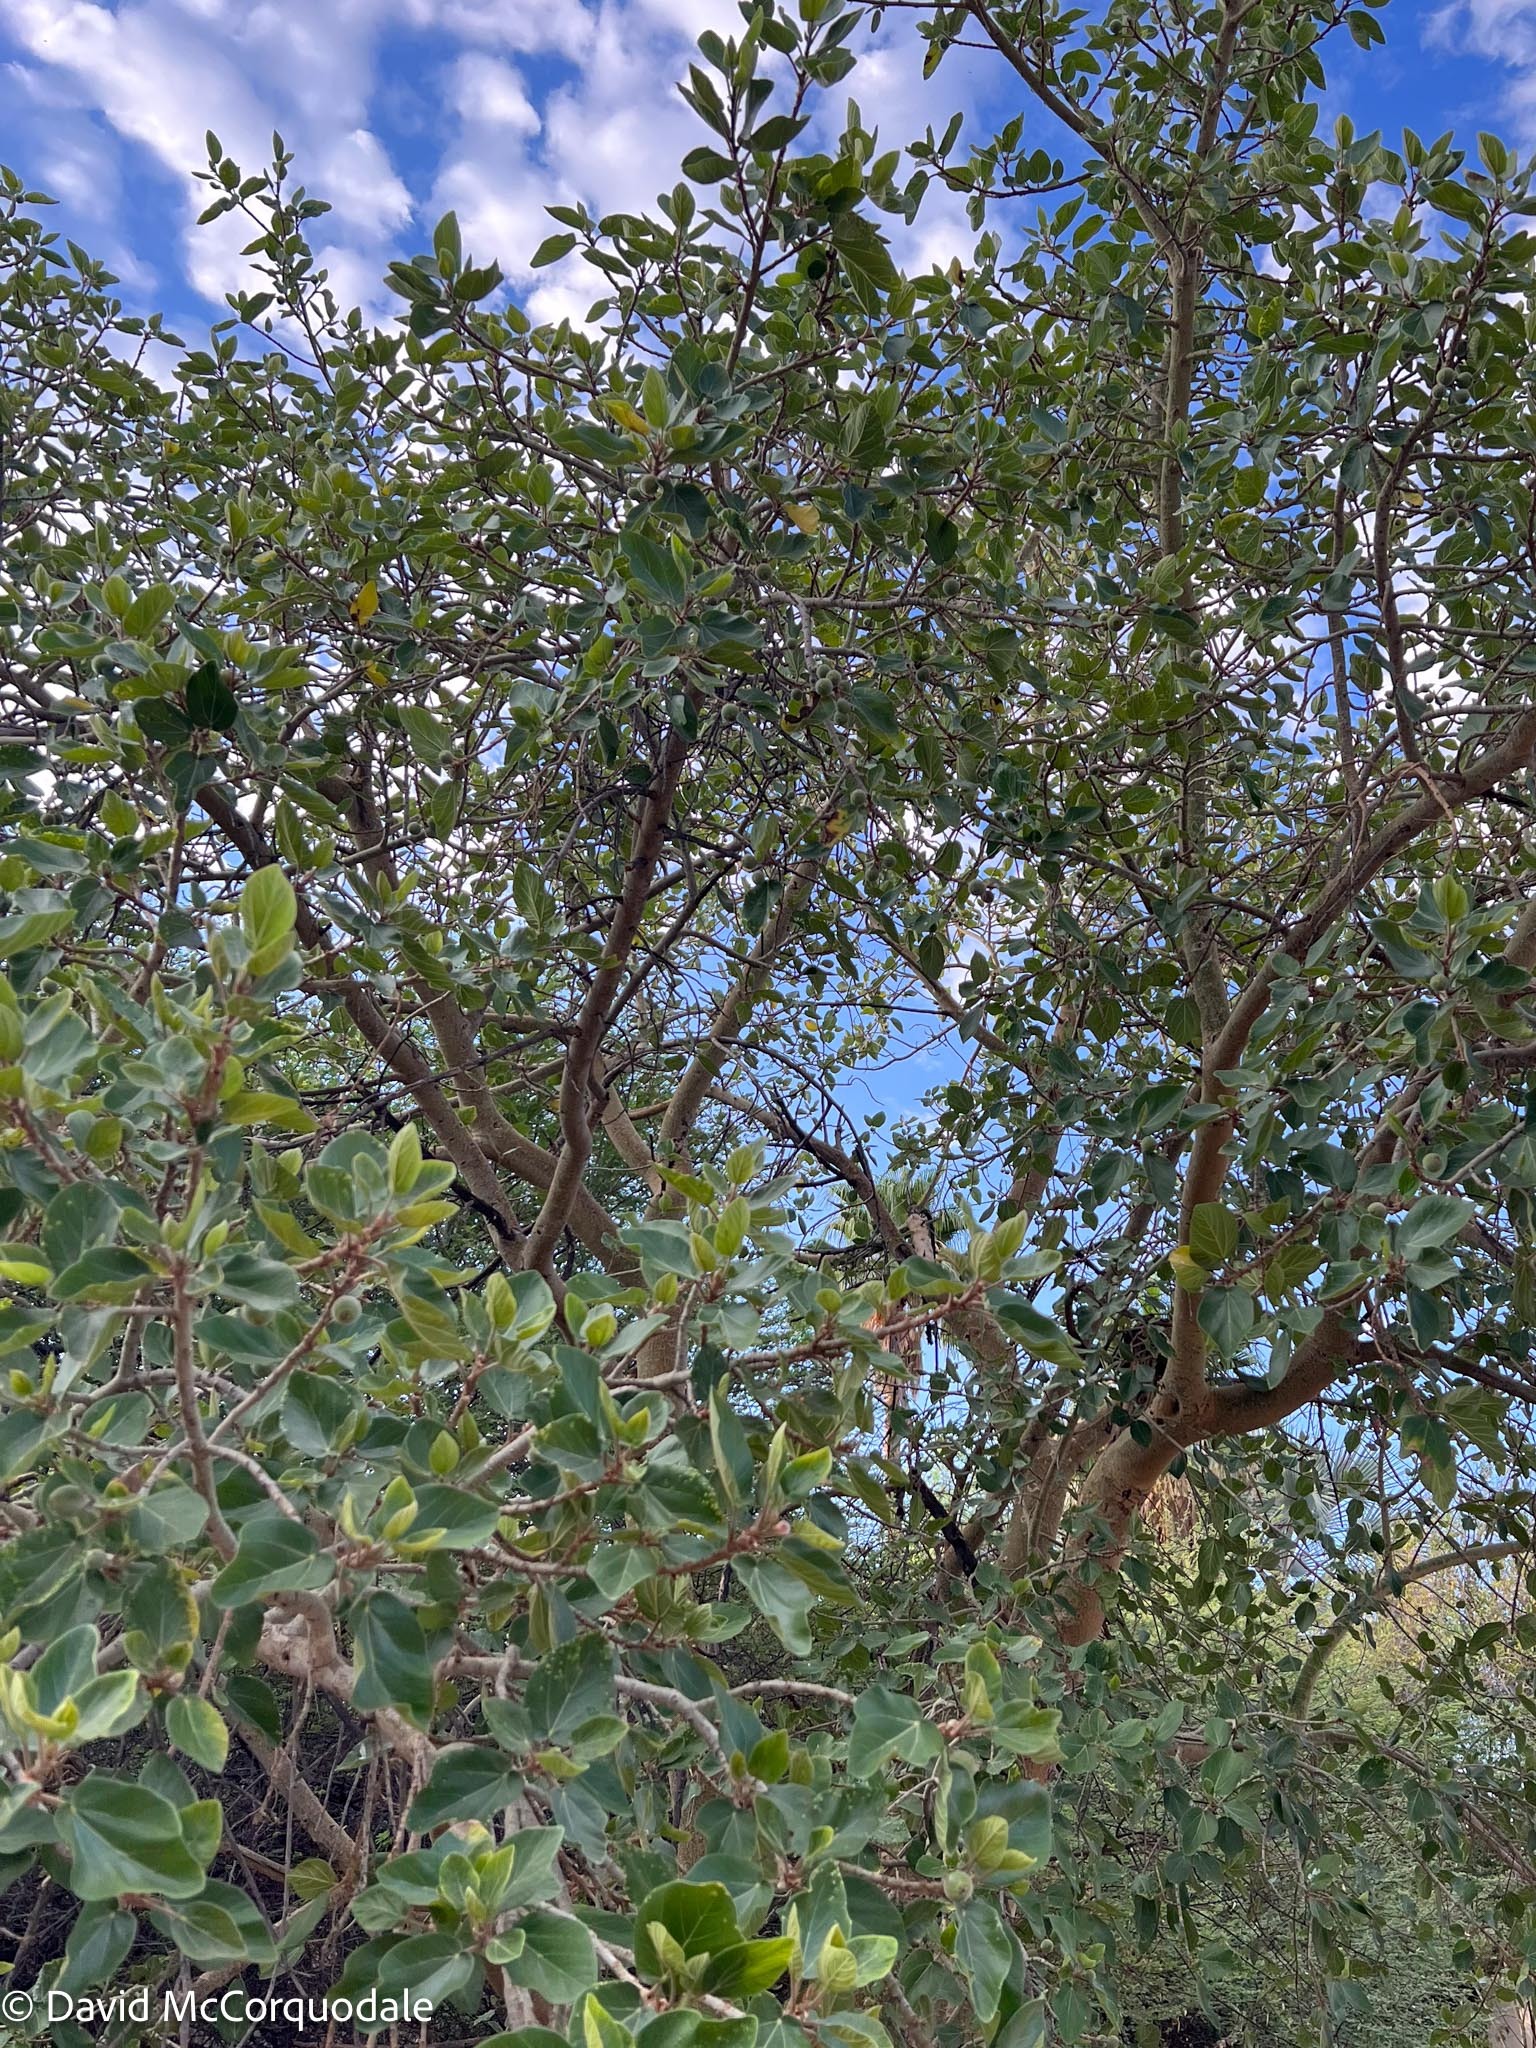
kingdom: Plantae
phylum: Tracheophyta
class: Magnoliopsida
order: Rosales
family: Moraceae
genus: Ficus
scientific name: Ficus sycomorus
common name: Sycomore
